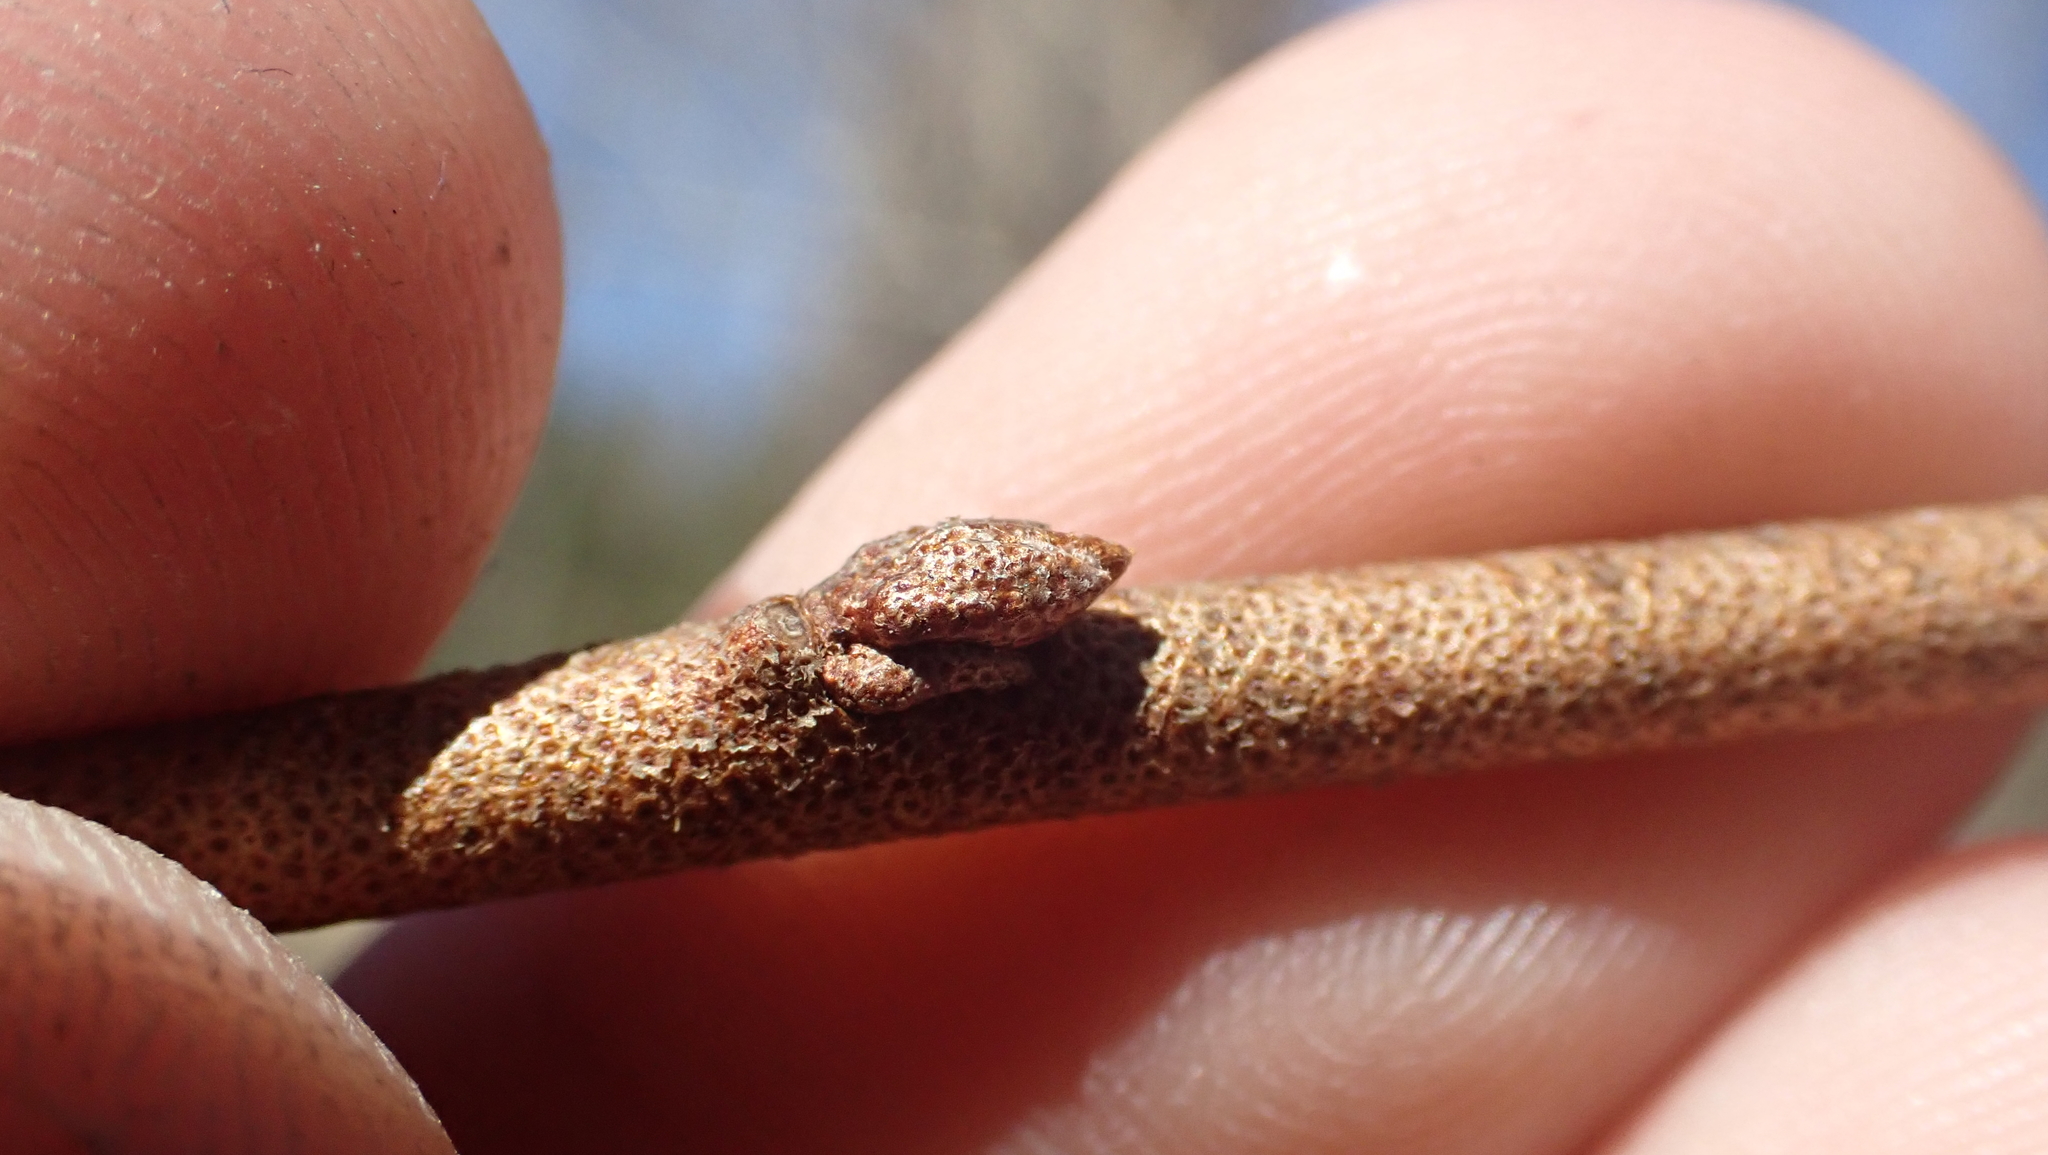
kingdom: Plantae
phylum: Tracheophyta
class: Magnoliopsida
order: Rosales
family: Elaeagnaceae
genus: Elaeagnus
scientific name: Elaeagnus umbellata
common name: Autumn olive
